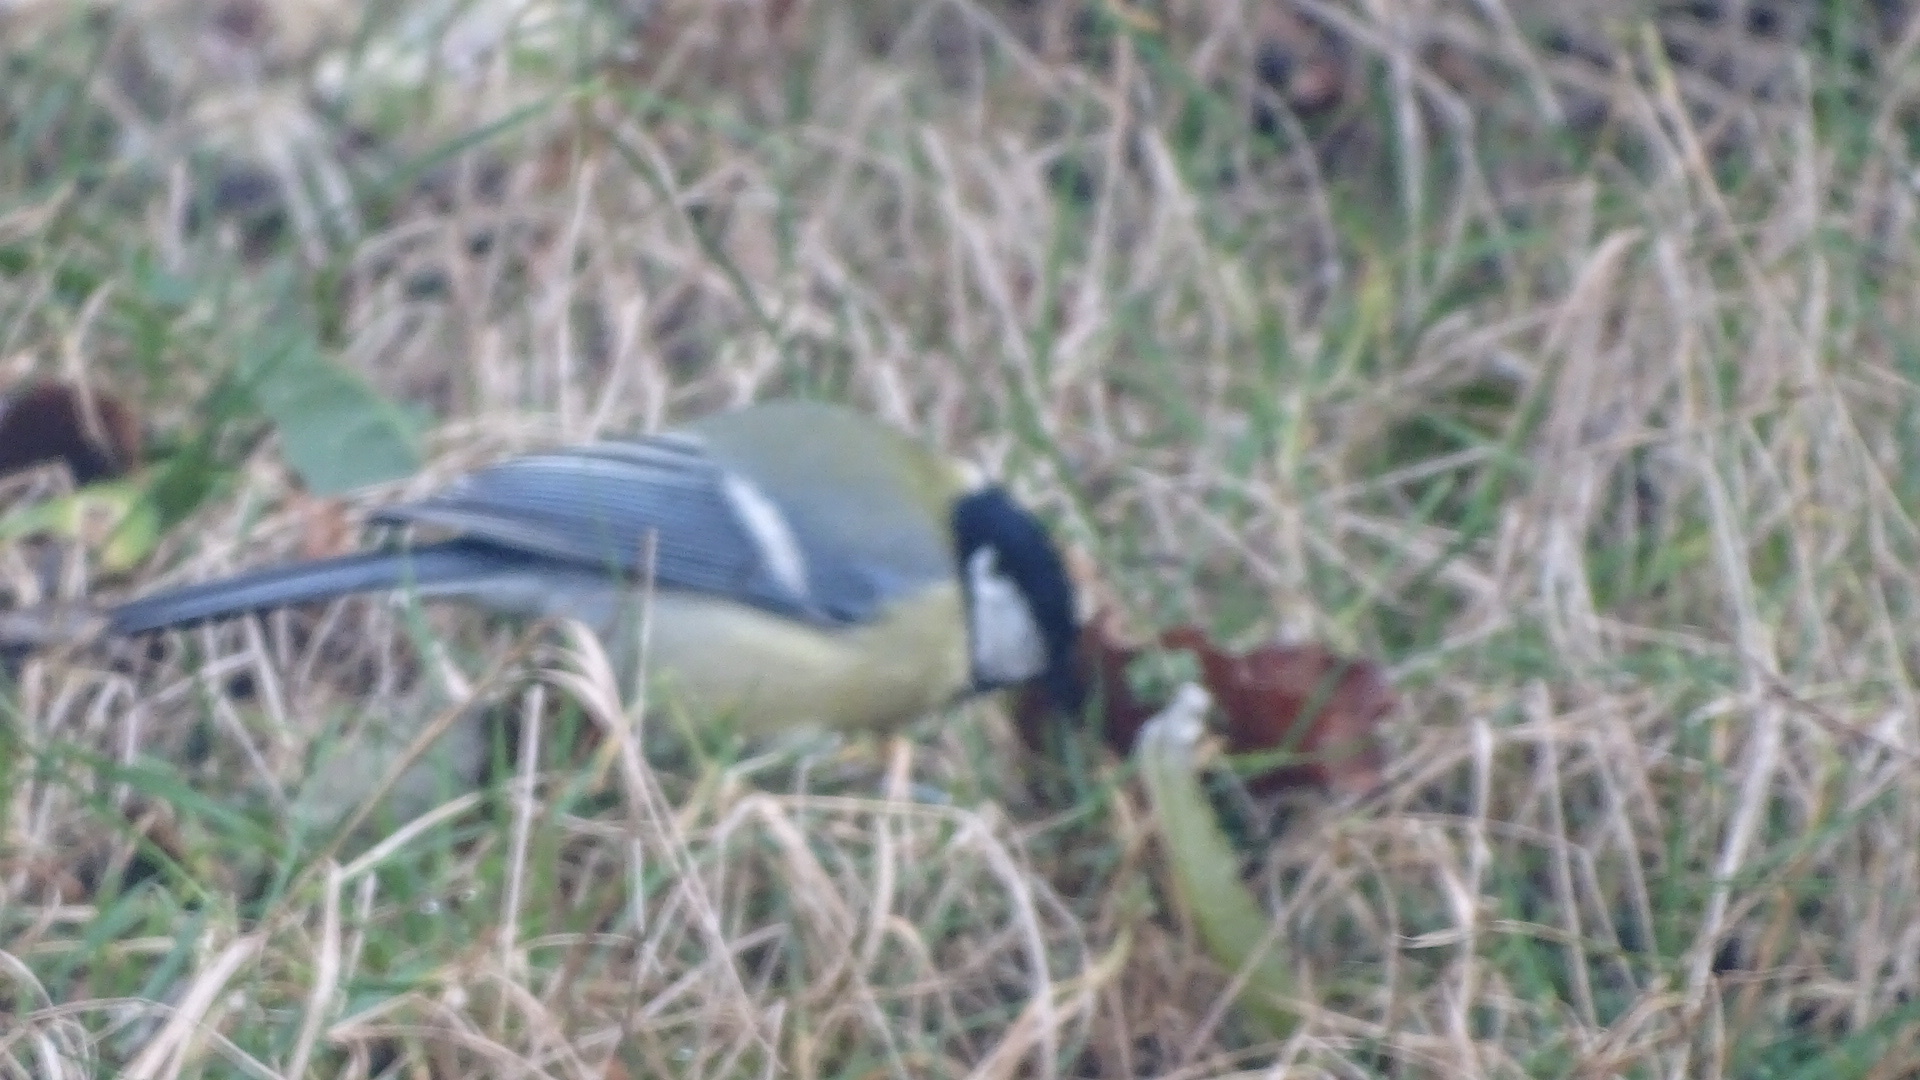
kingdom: Animalia
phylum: Chordata
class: Aves
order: Passeriformes
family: Paridae
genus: Parus
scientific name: Parus major
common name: Great tit
